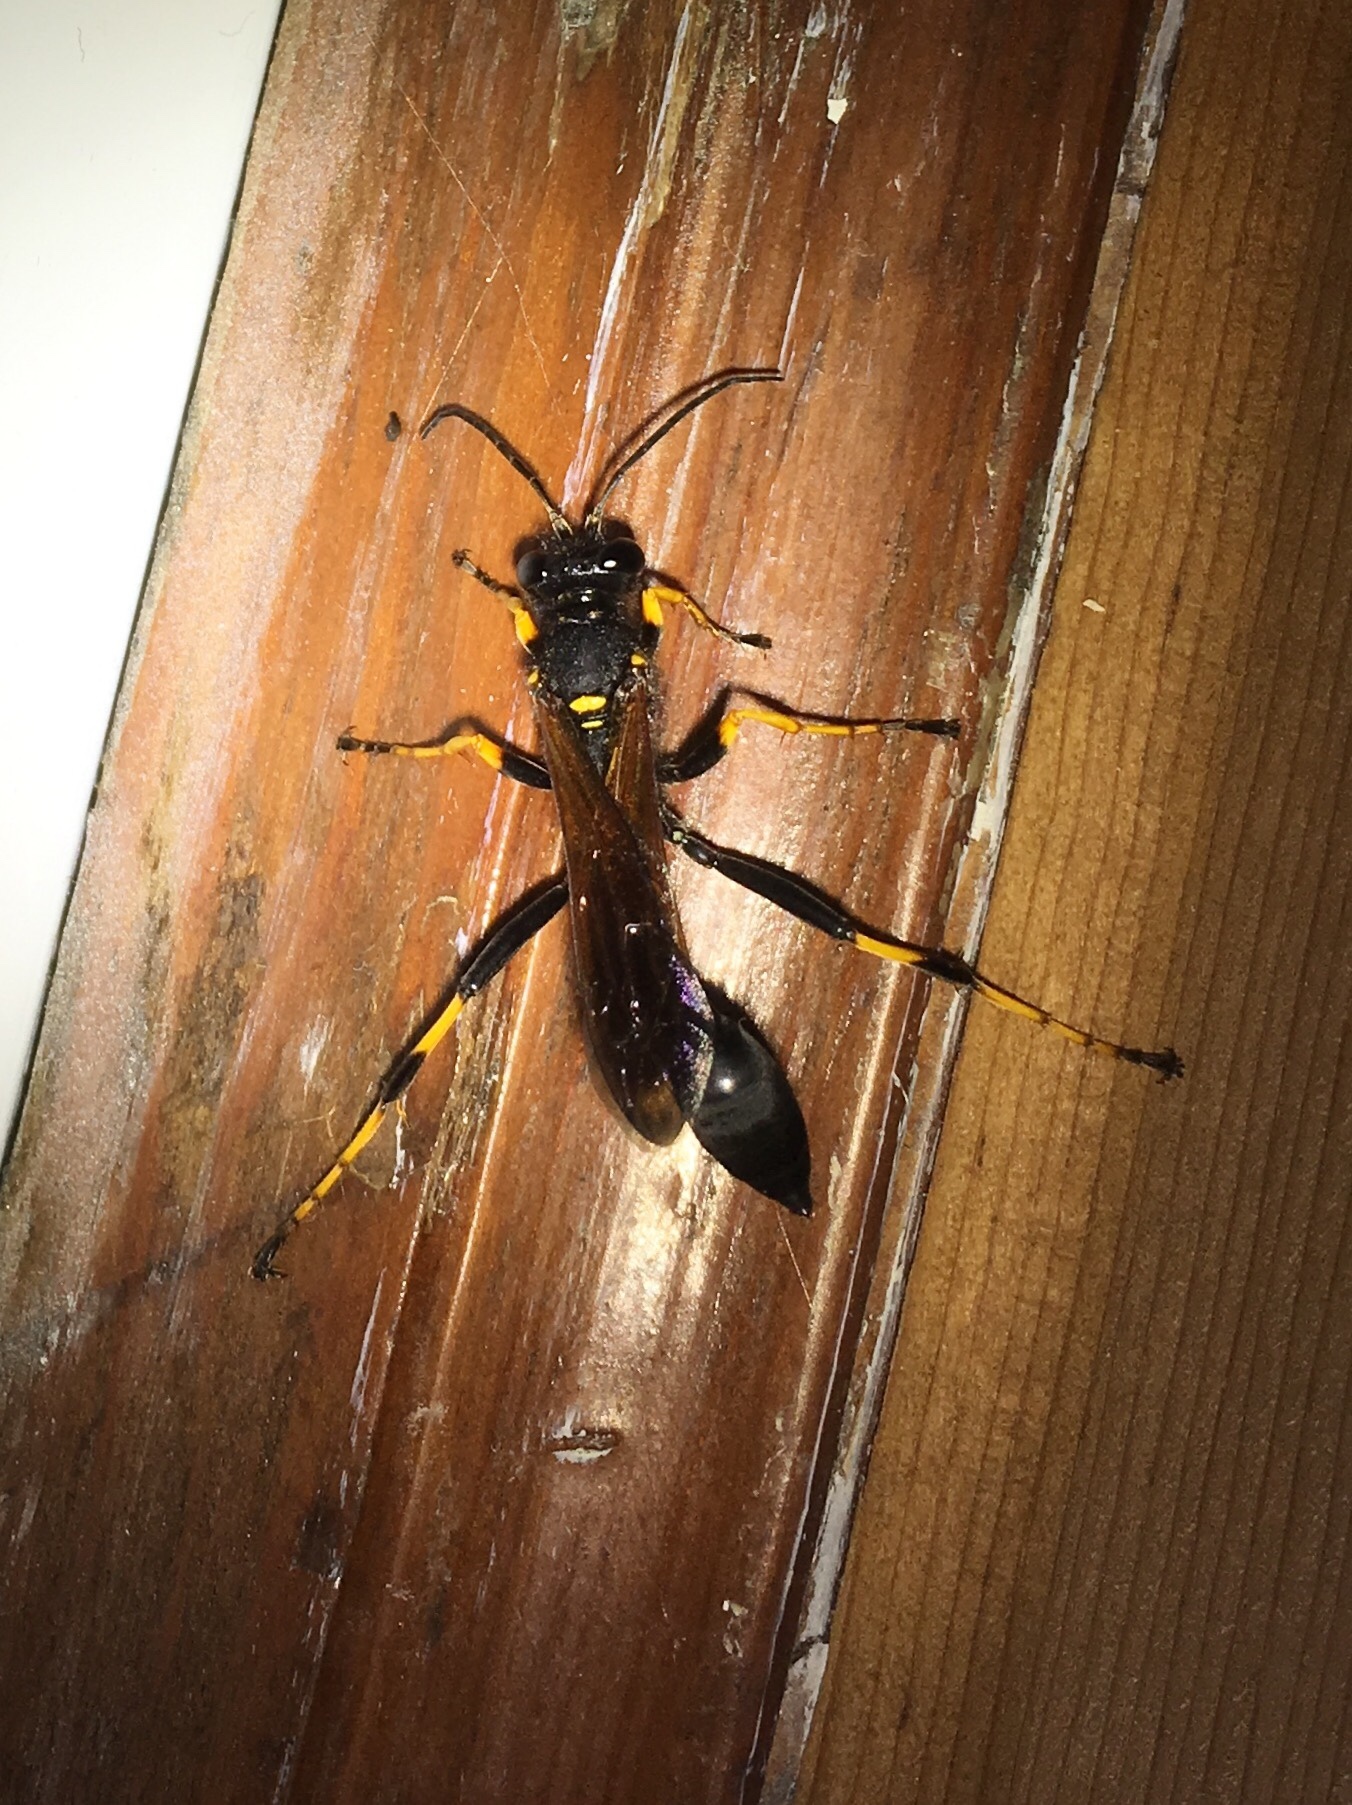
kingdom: Animalia
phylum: Arthropoda
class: Insecta
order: Hymenoptera
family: Sphecidae
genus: Sceliphron
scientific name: Sceliphron caementarium
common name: Mud dauber
